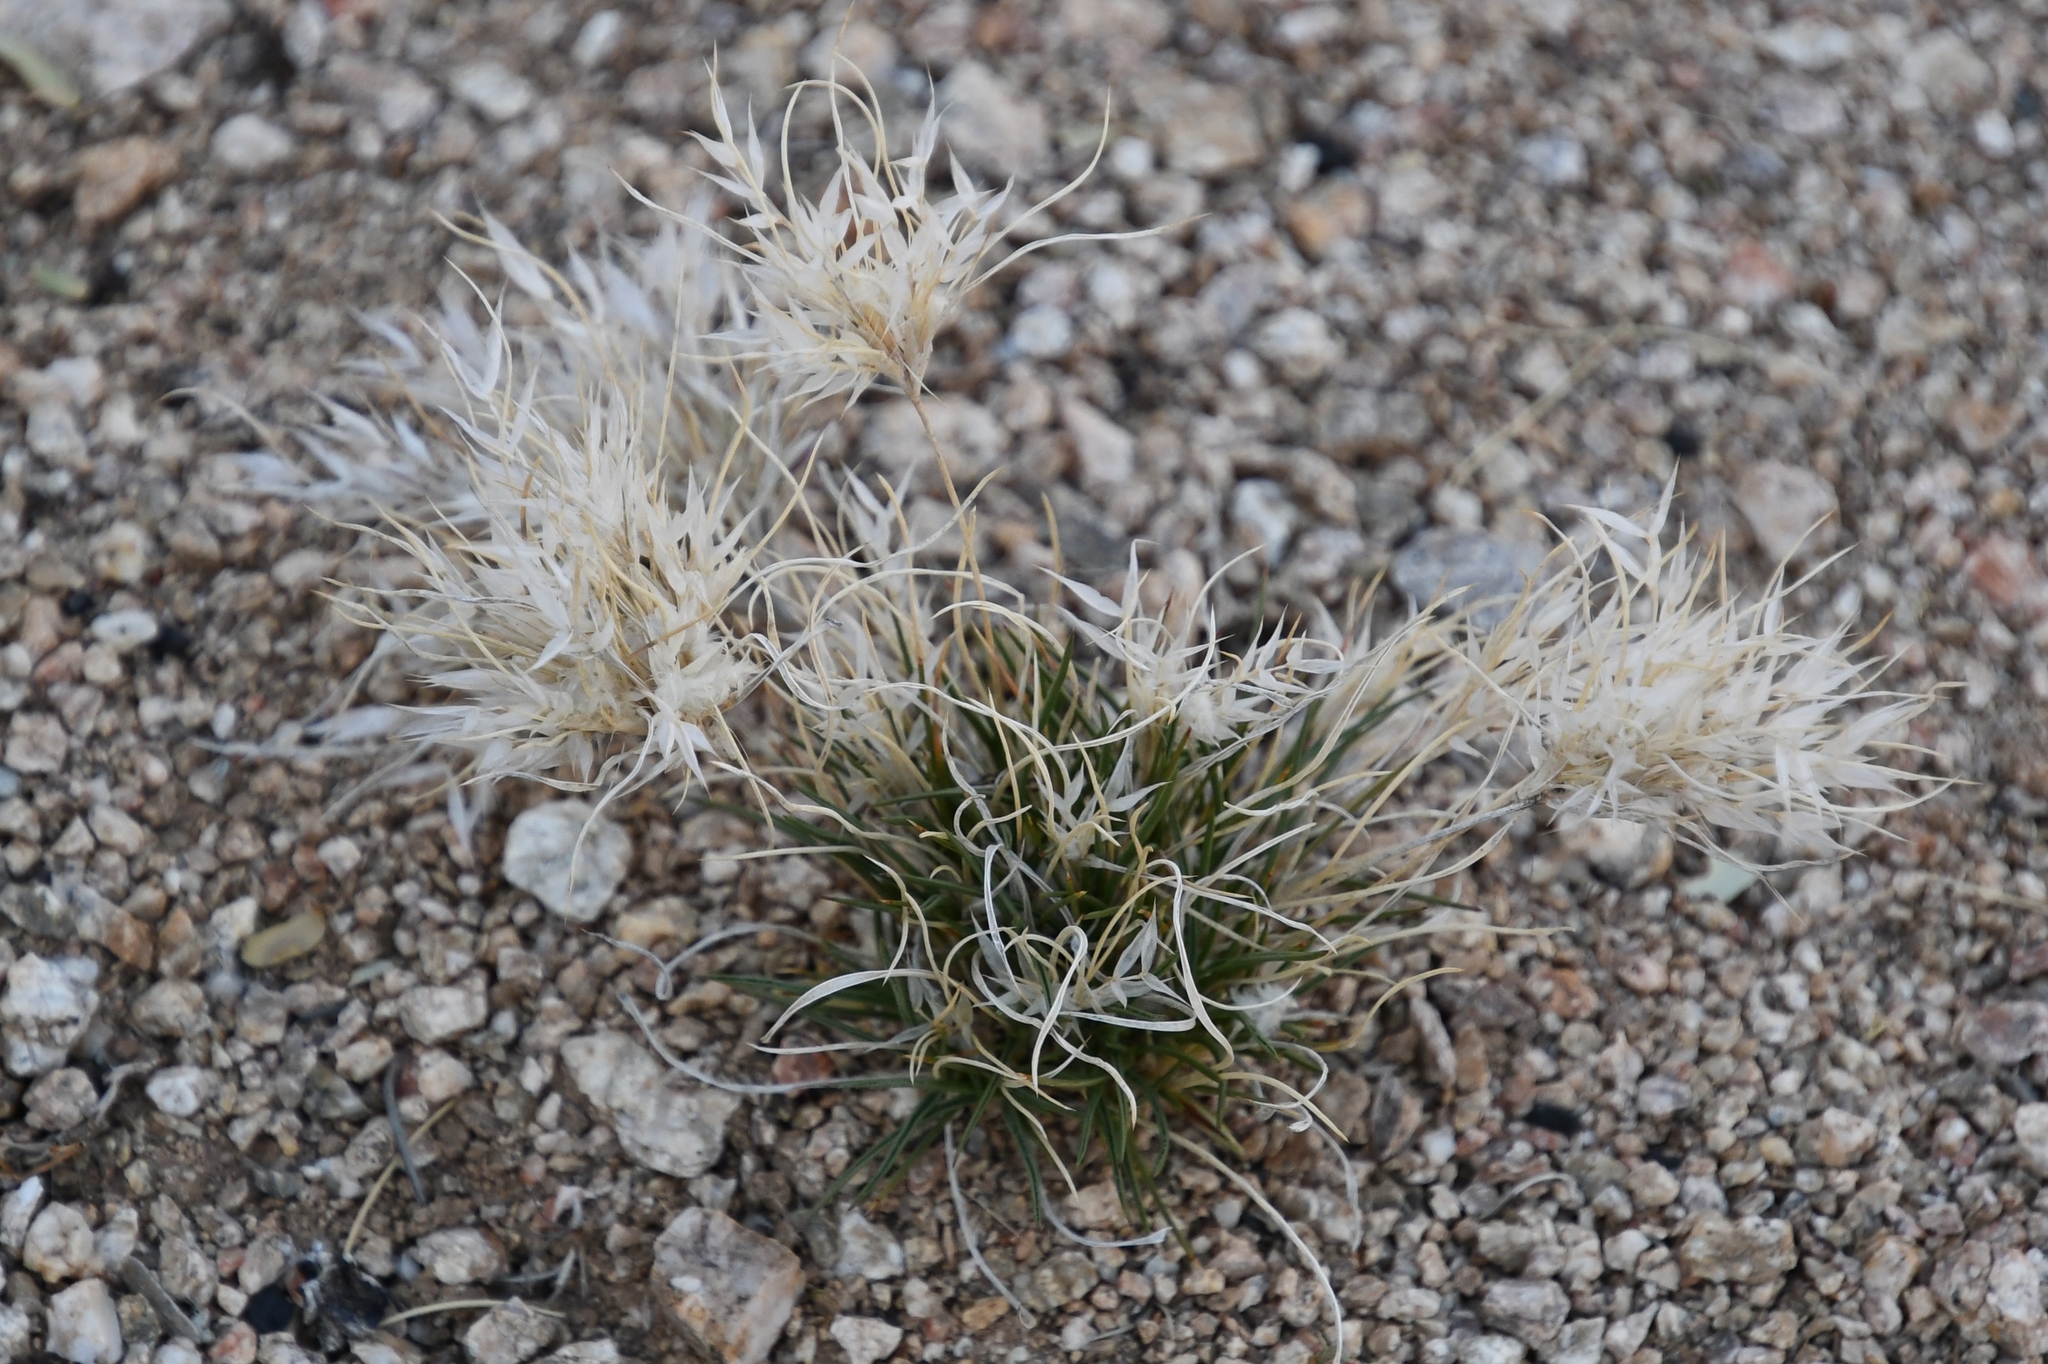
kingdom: Plantae
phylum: Tracheophyta
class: Liliopsida
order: Poales
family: Poaceae
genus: Dasyochloa
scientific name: Dasyochloa pulchella
